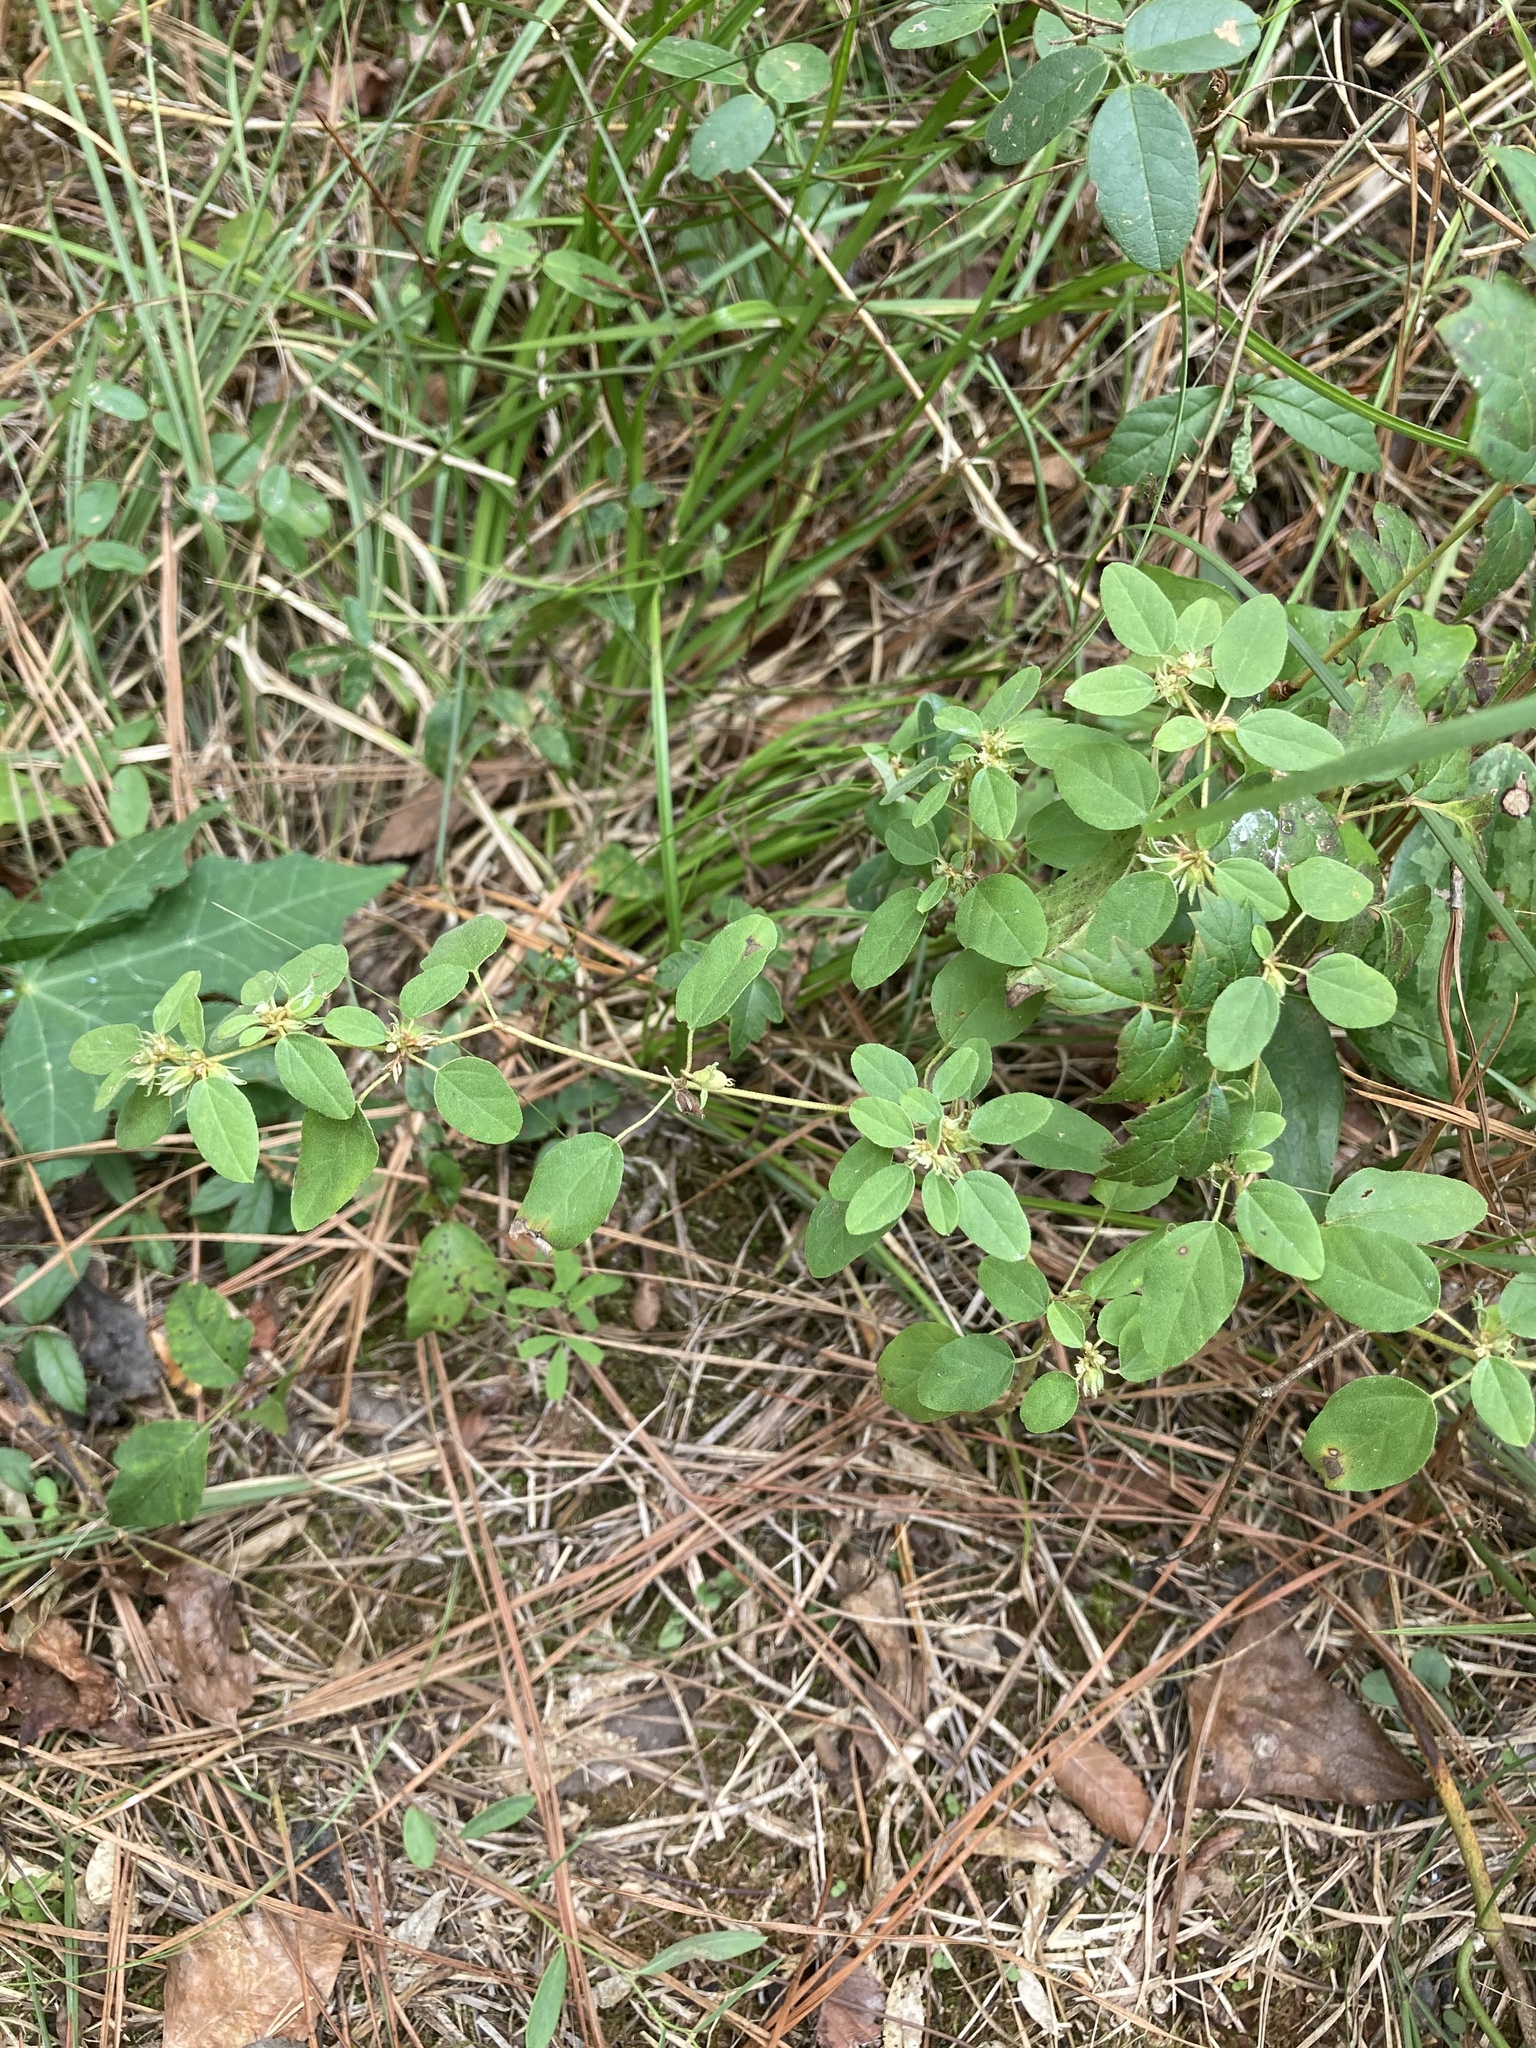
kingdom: Plantae
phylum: Tracheophyta
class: Magnoliopsida
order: Malpighiales
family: Euphorbiaceae
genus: Croton
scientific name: Croton monanthogynus
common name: One-seed croton
